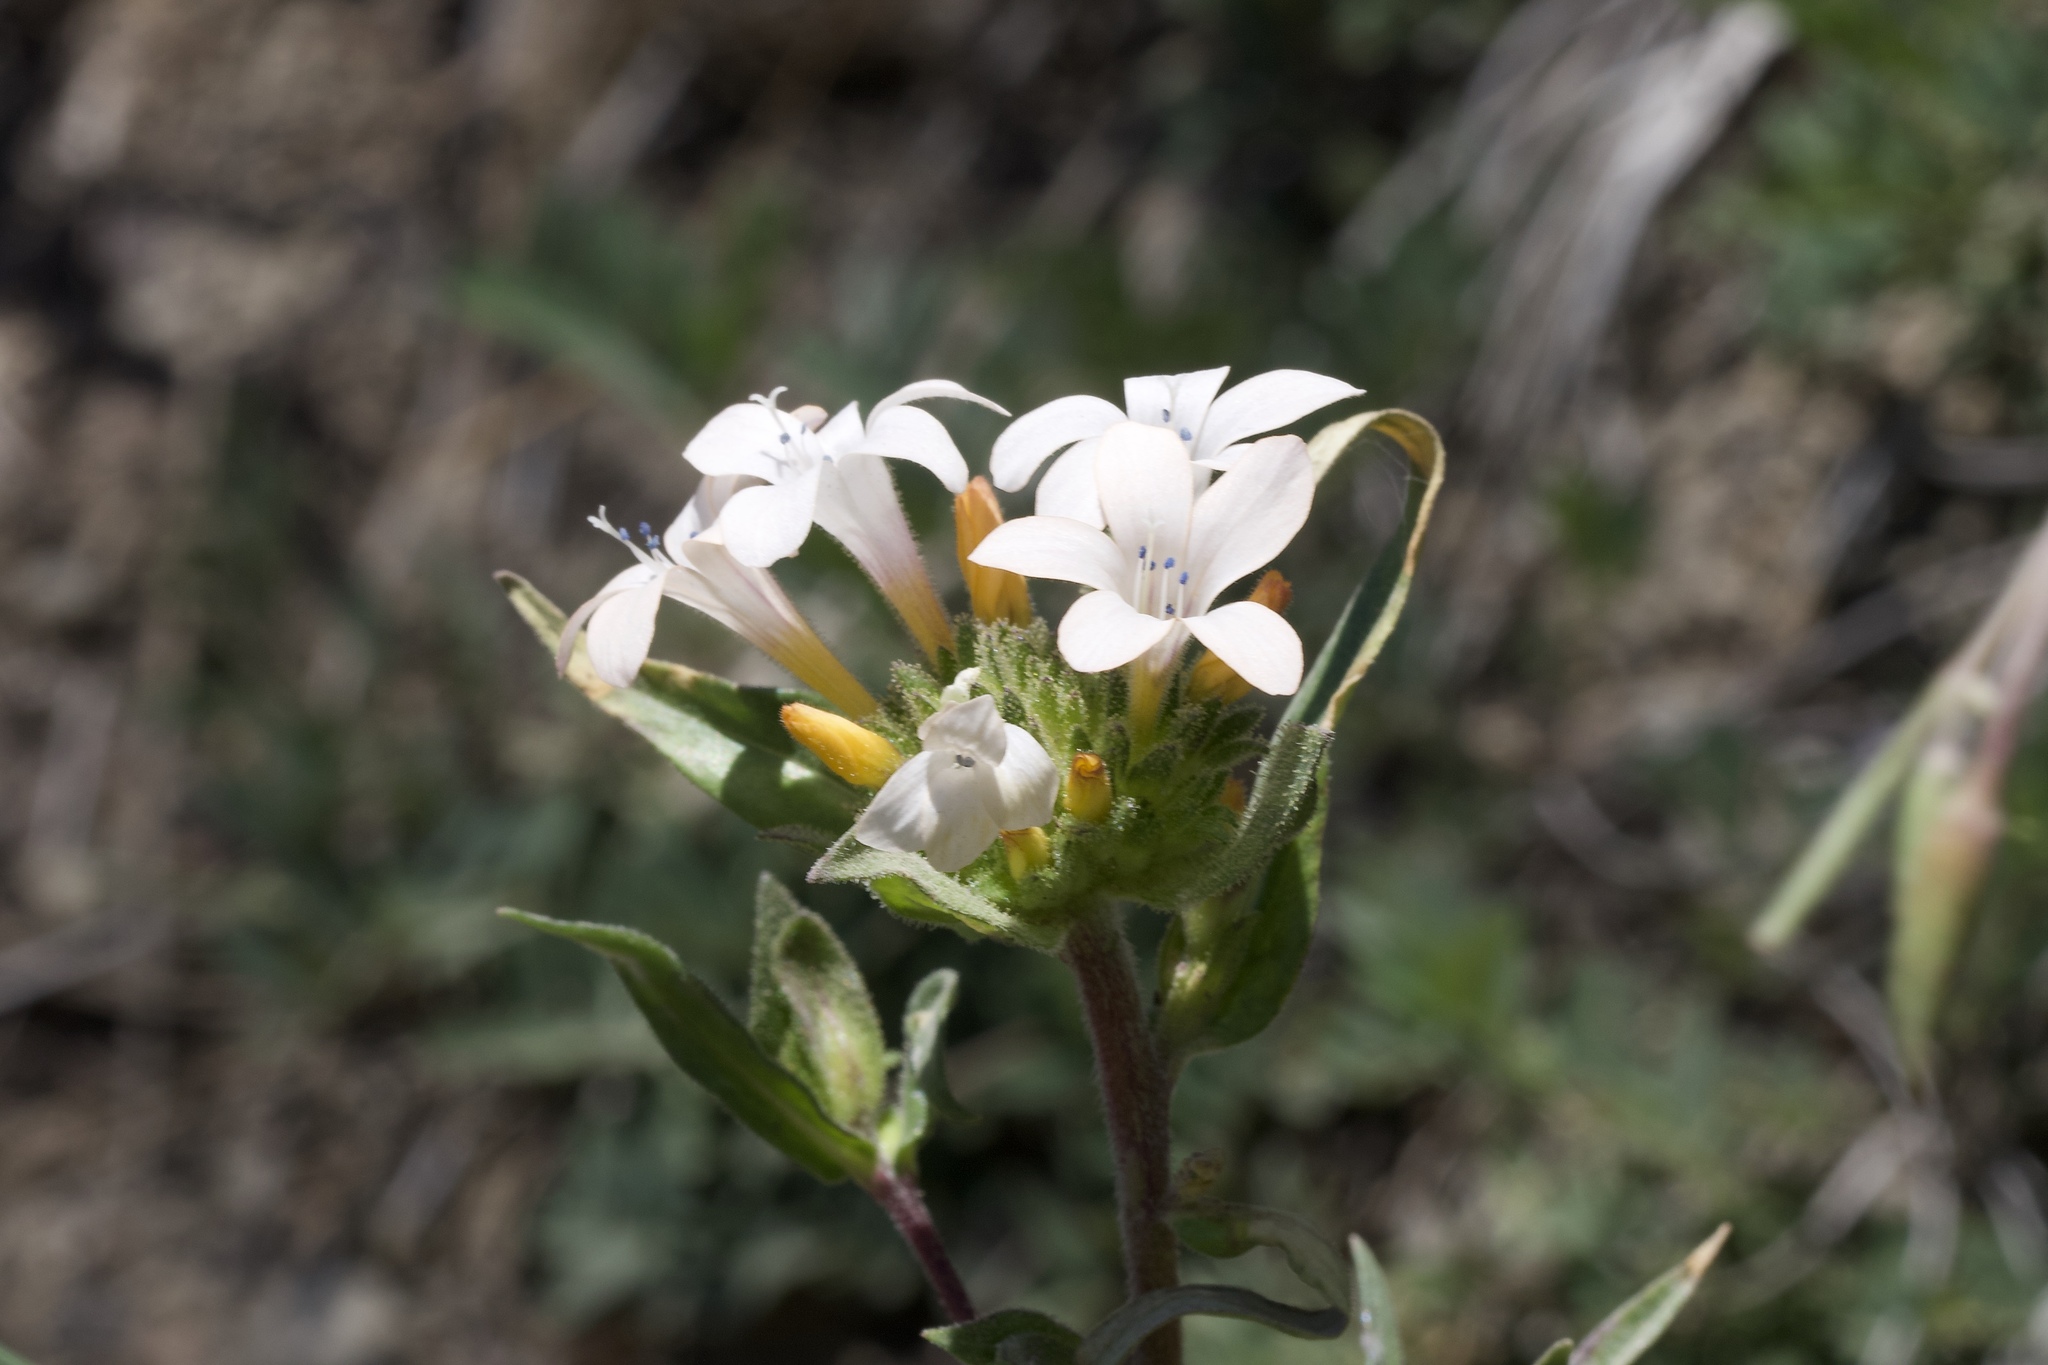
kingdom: Plantae
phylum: Tracheophyta
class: Magnoliopsida
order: Ericales
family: Polemoniaceae
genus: Collomia
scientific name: Collomia grandiflora
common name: California strawflower
